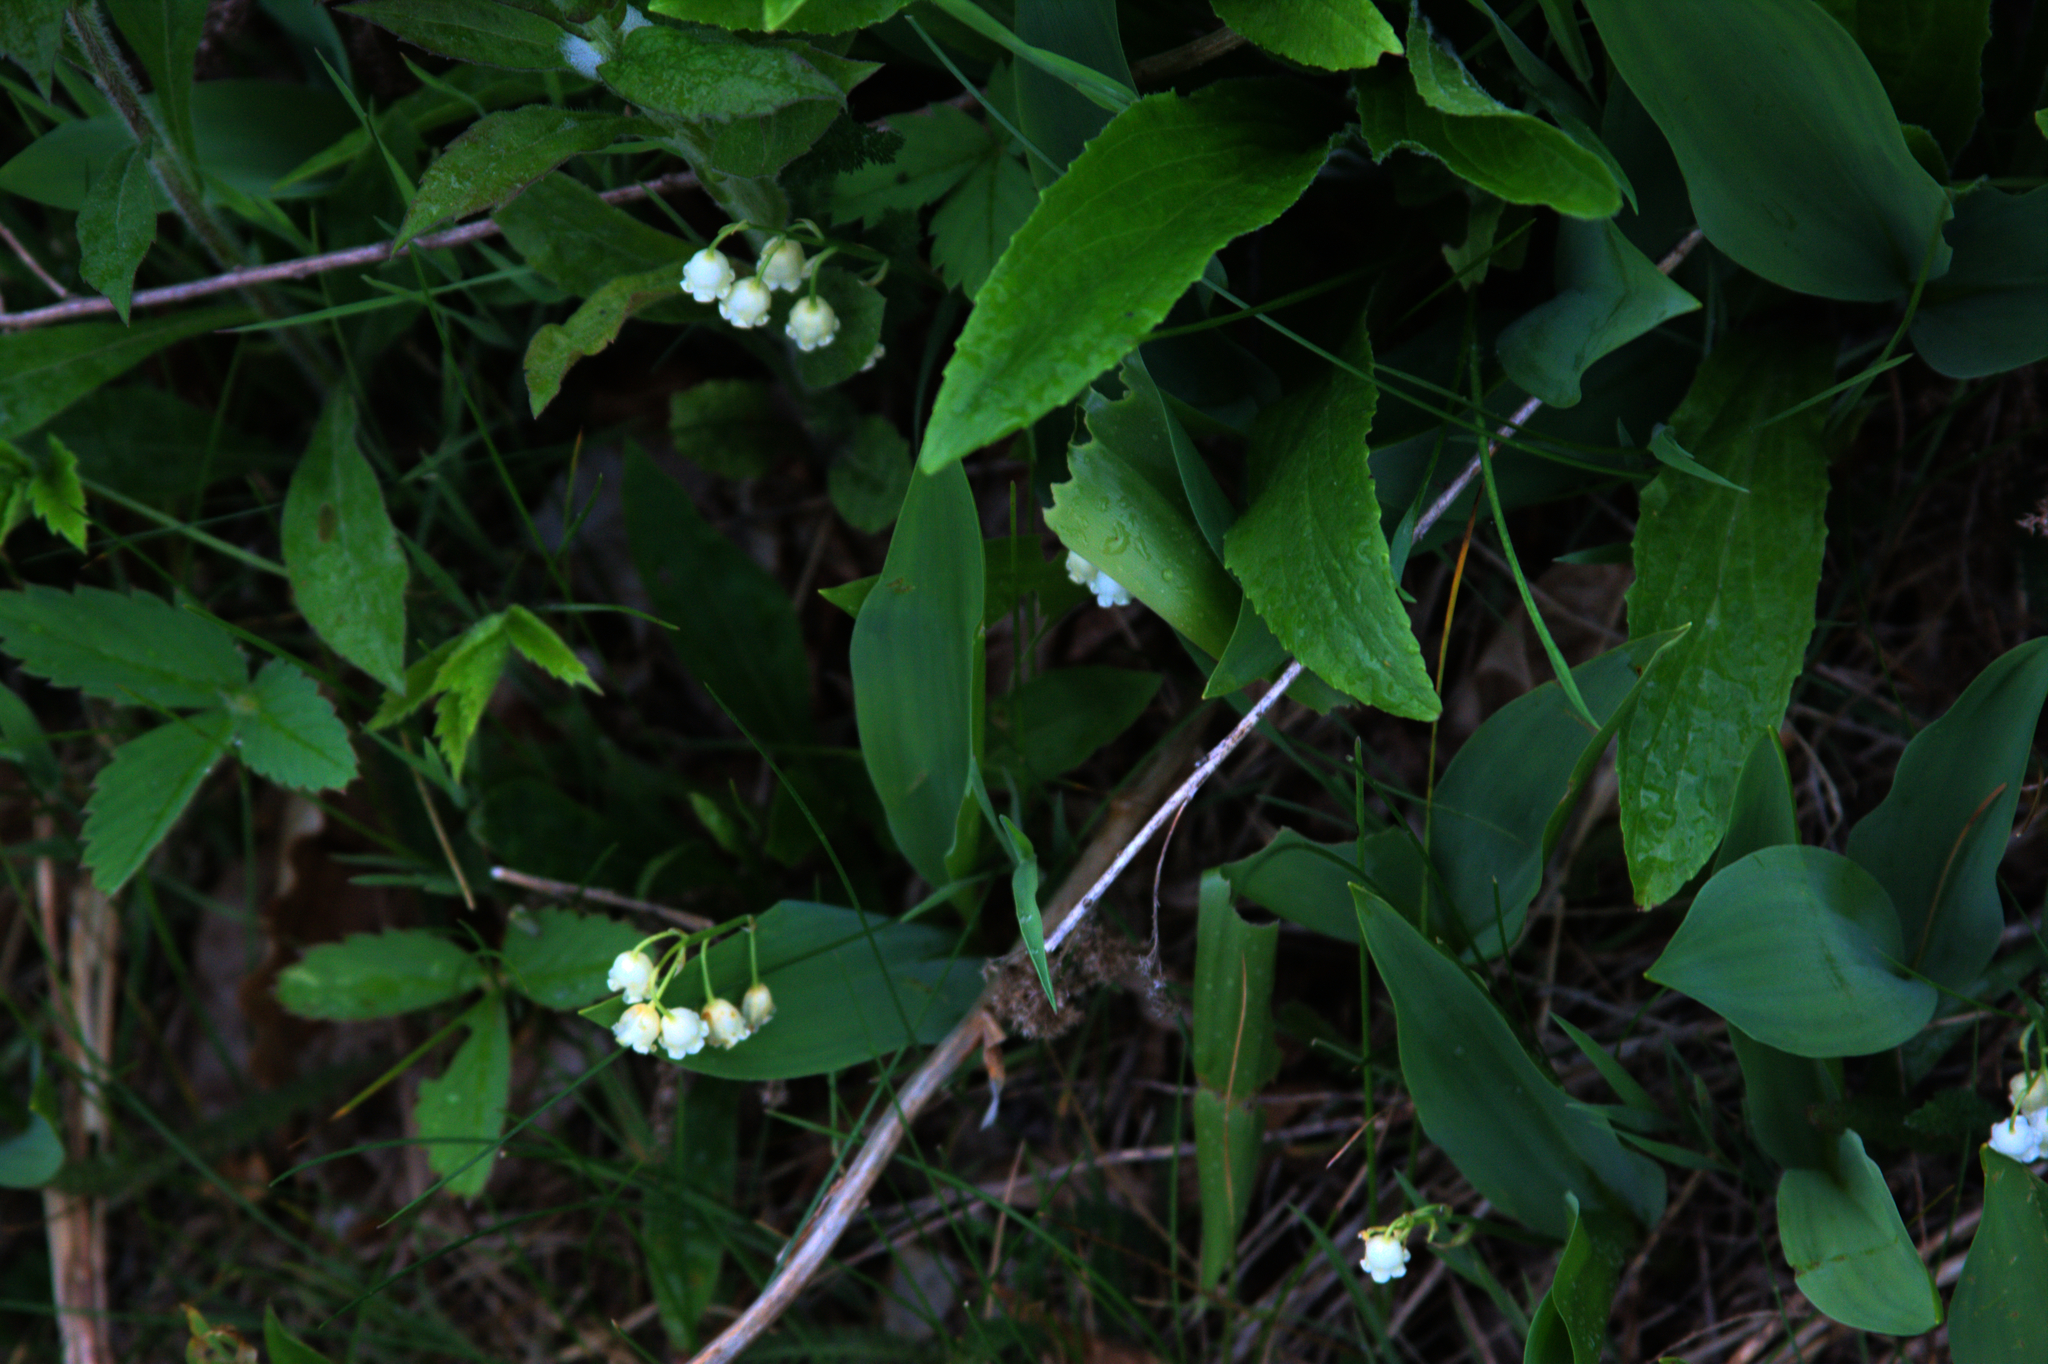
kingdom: Plantae
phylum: Tracheophyta
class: Liliopsida
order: Asparagales
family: Asparagaceae
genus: Convallaria
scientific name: Convallaria majalis
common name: Lily-of-the-valley
